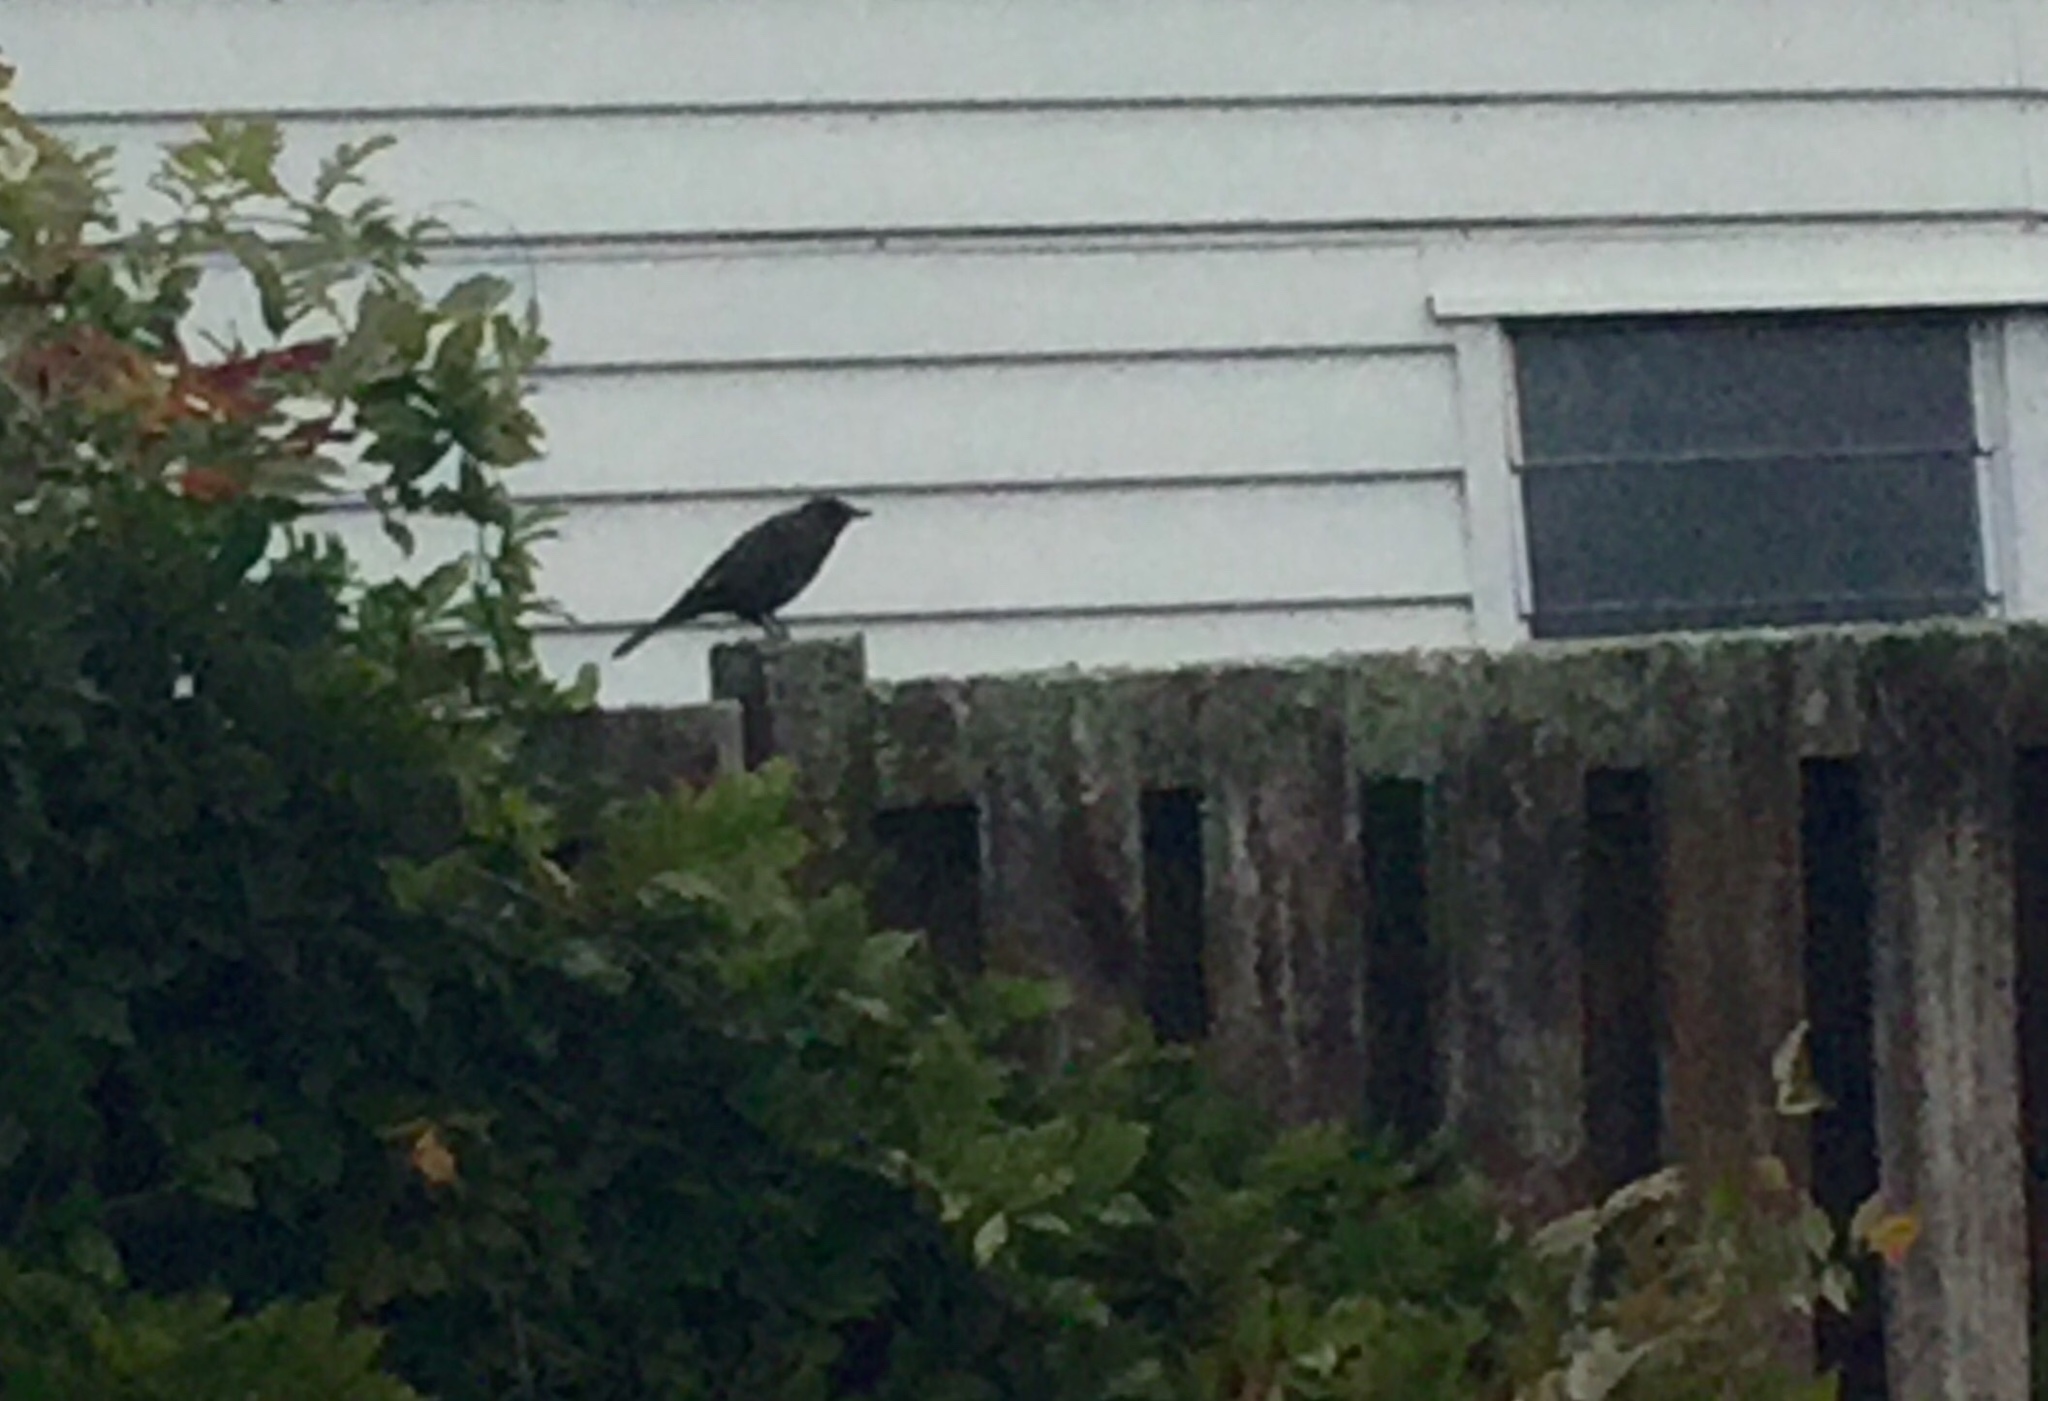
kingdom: Animalia
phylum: Chordata
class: Aves
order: Passeriformes
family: Turdidae
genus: Turdus
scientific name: Turdus merula
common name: Common blackbird
